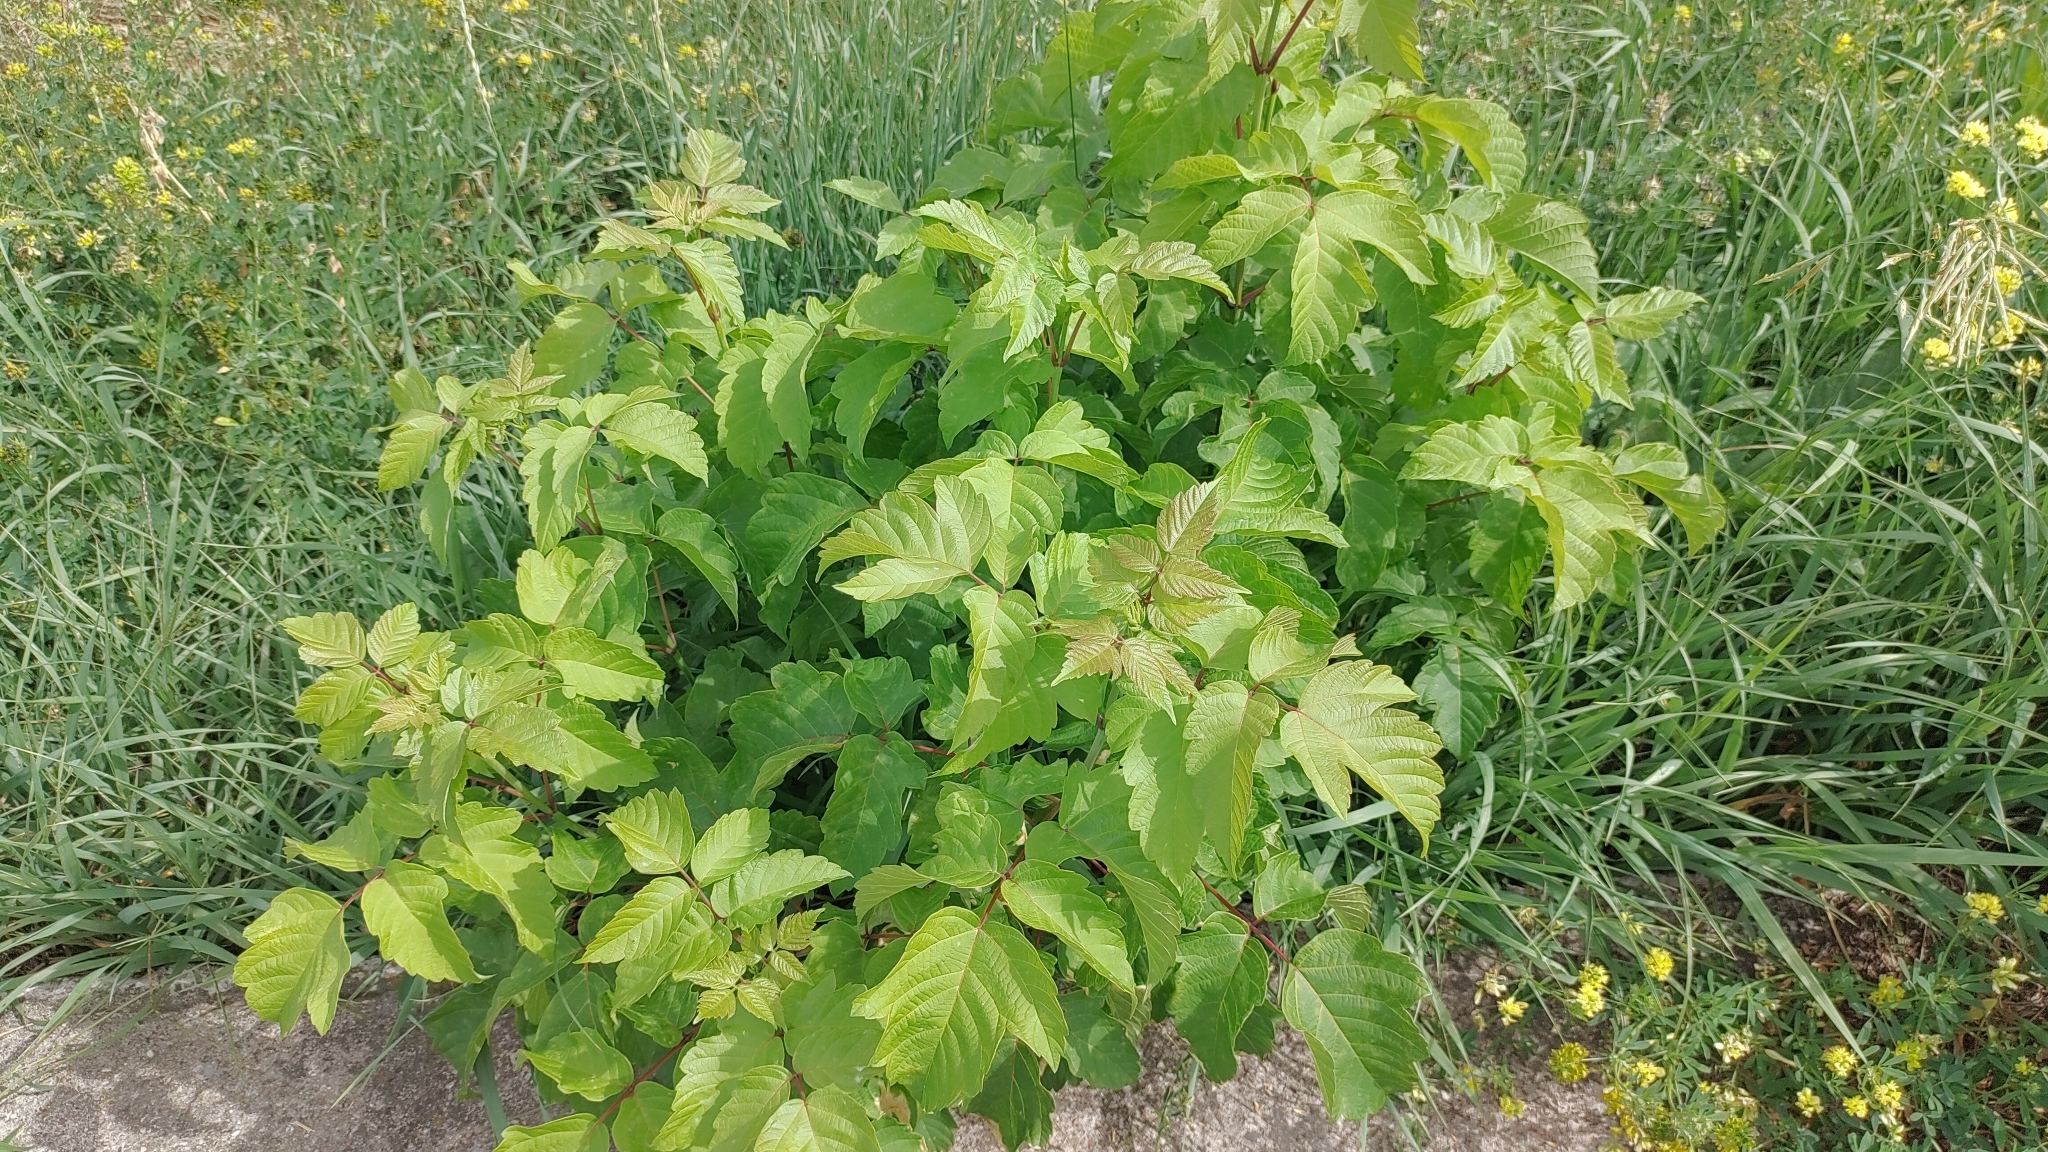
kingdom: Plantae
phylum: Tracheophyta
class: Magnoliopsida
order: Sapindales
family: Sapindaceae
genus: Acer
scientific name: Acer negundo
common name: Ashleaf maple
